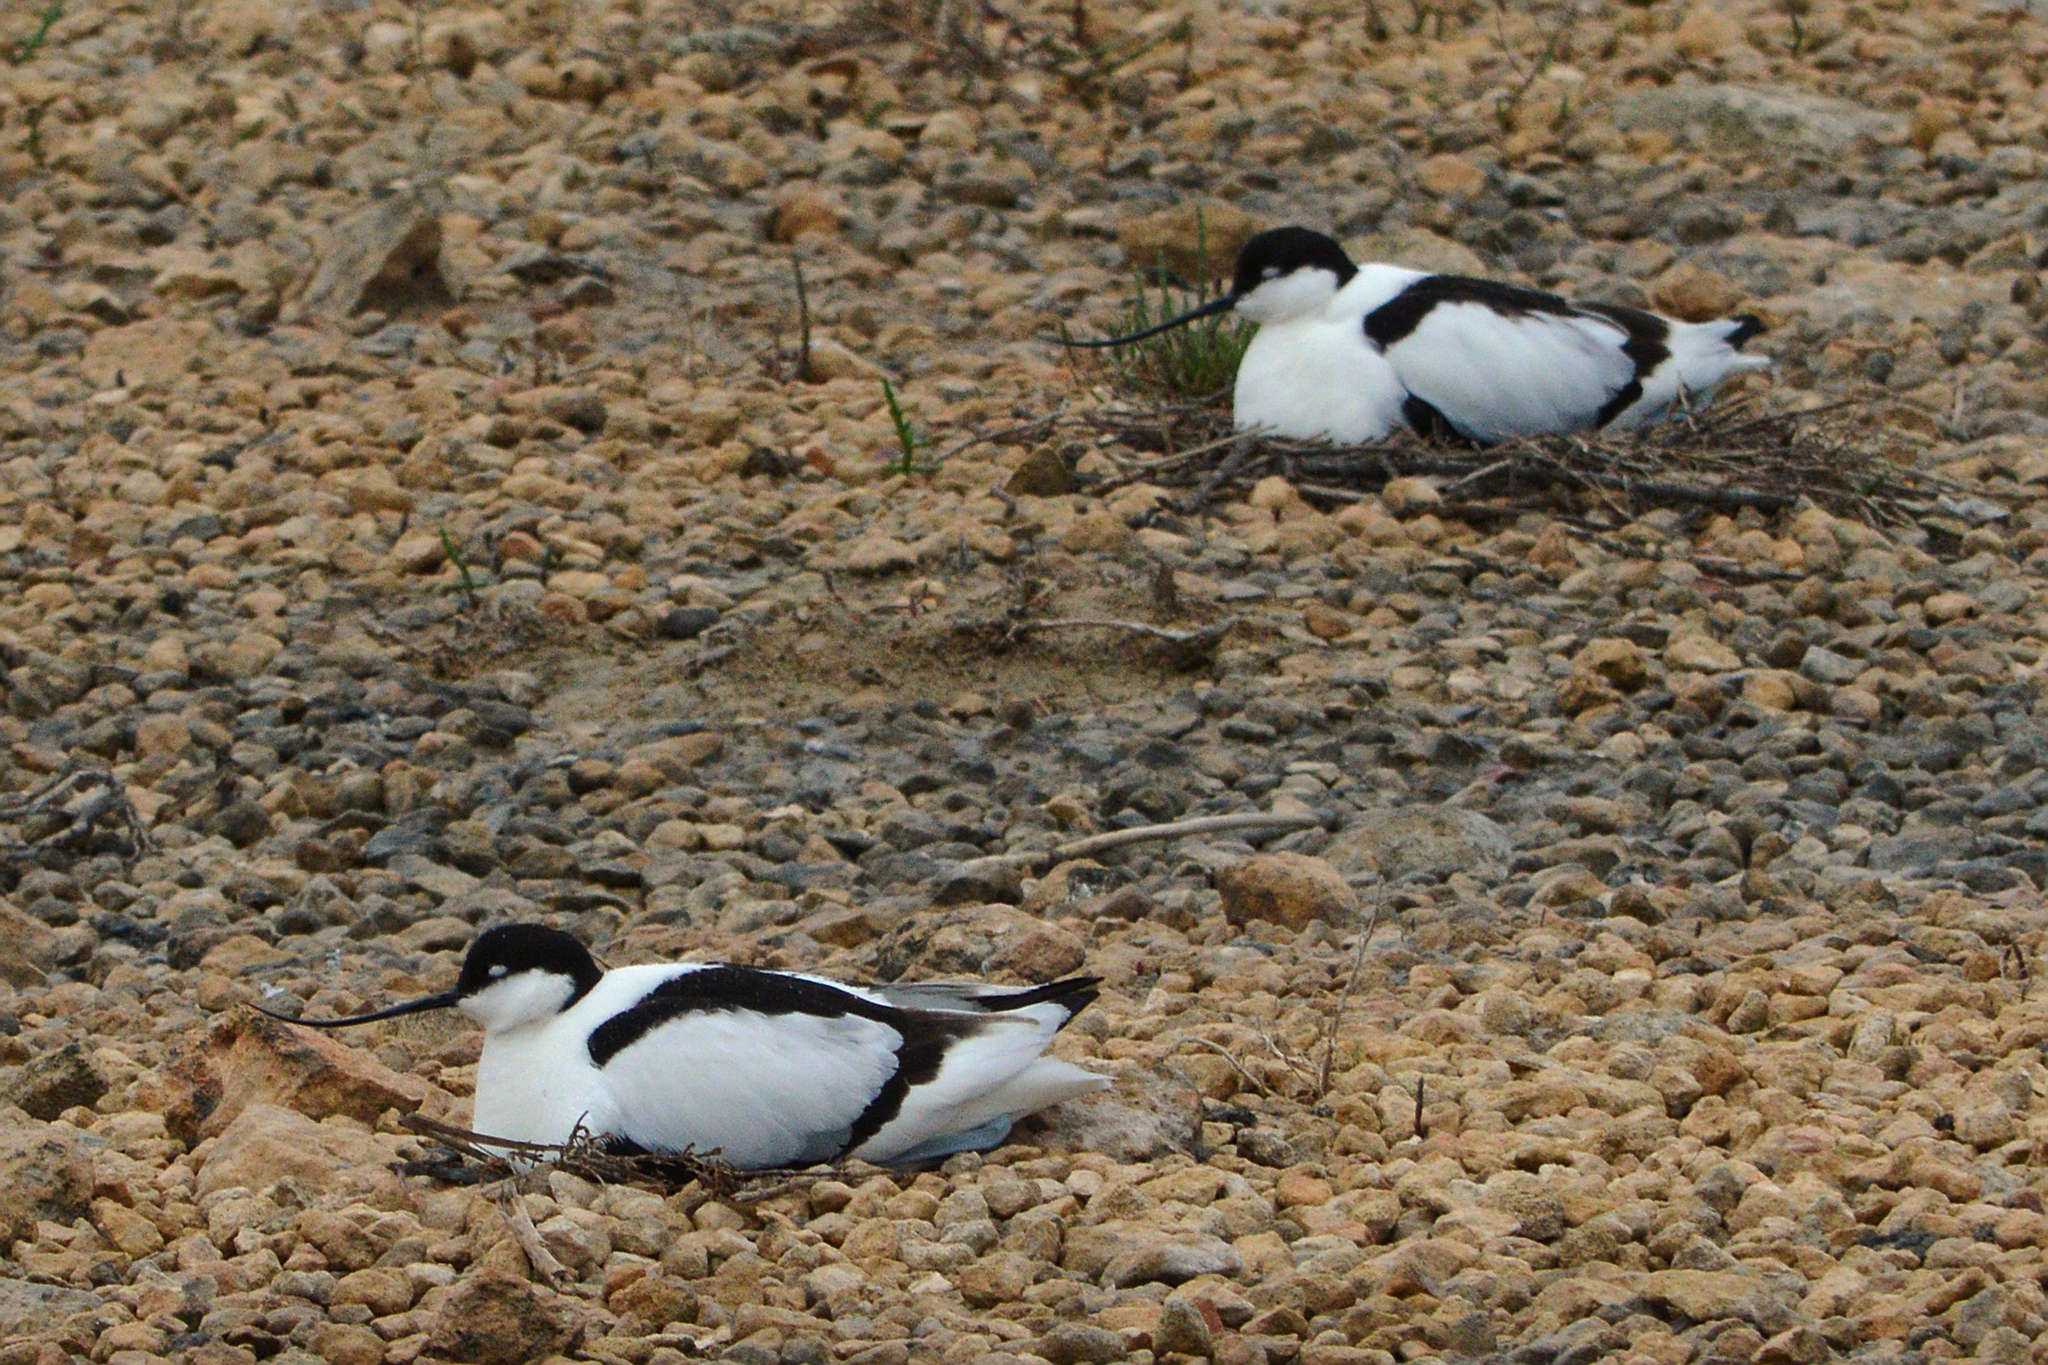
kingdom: Animalia
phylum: Chordata
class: Aves
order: Charadriiformes
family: Recurvirostridae
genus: Recurvirostra
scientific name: Recurvirostra avosetta
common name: Pied avocet
